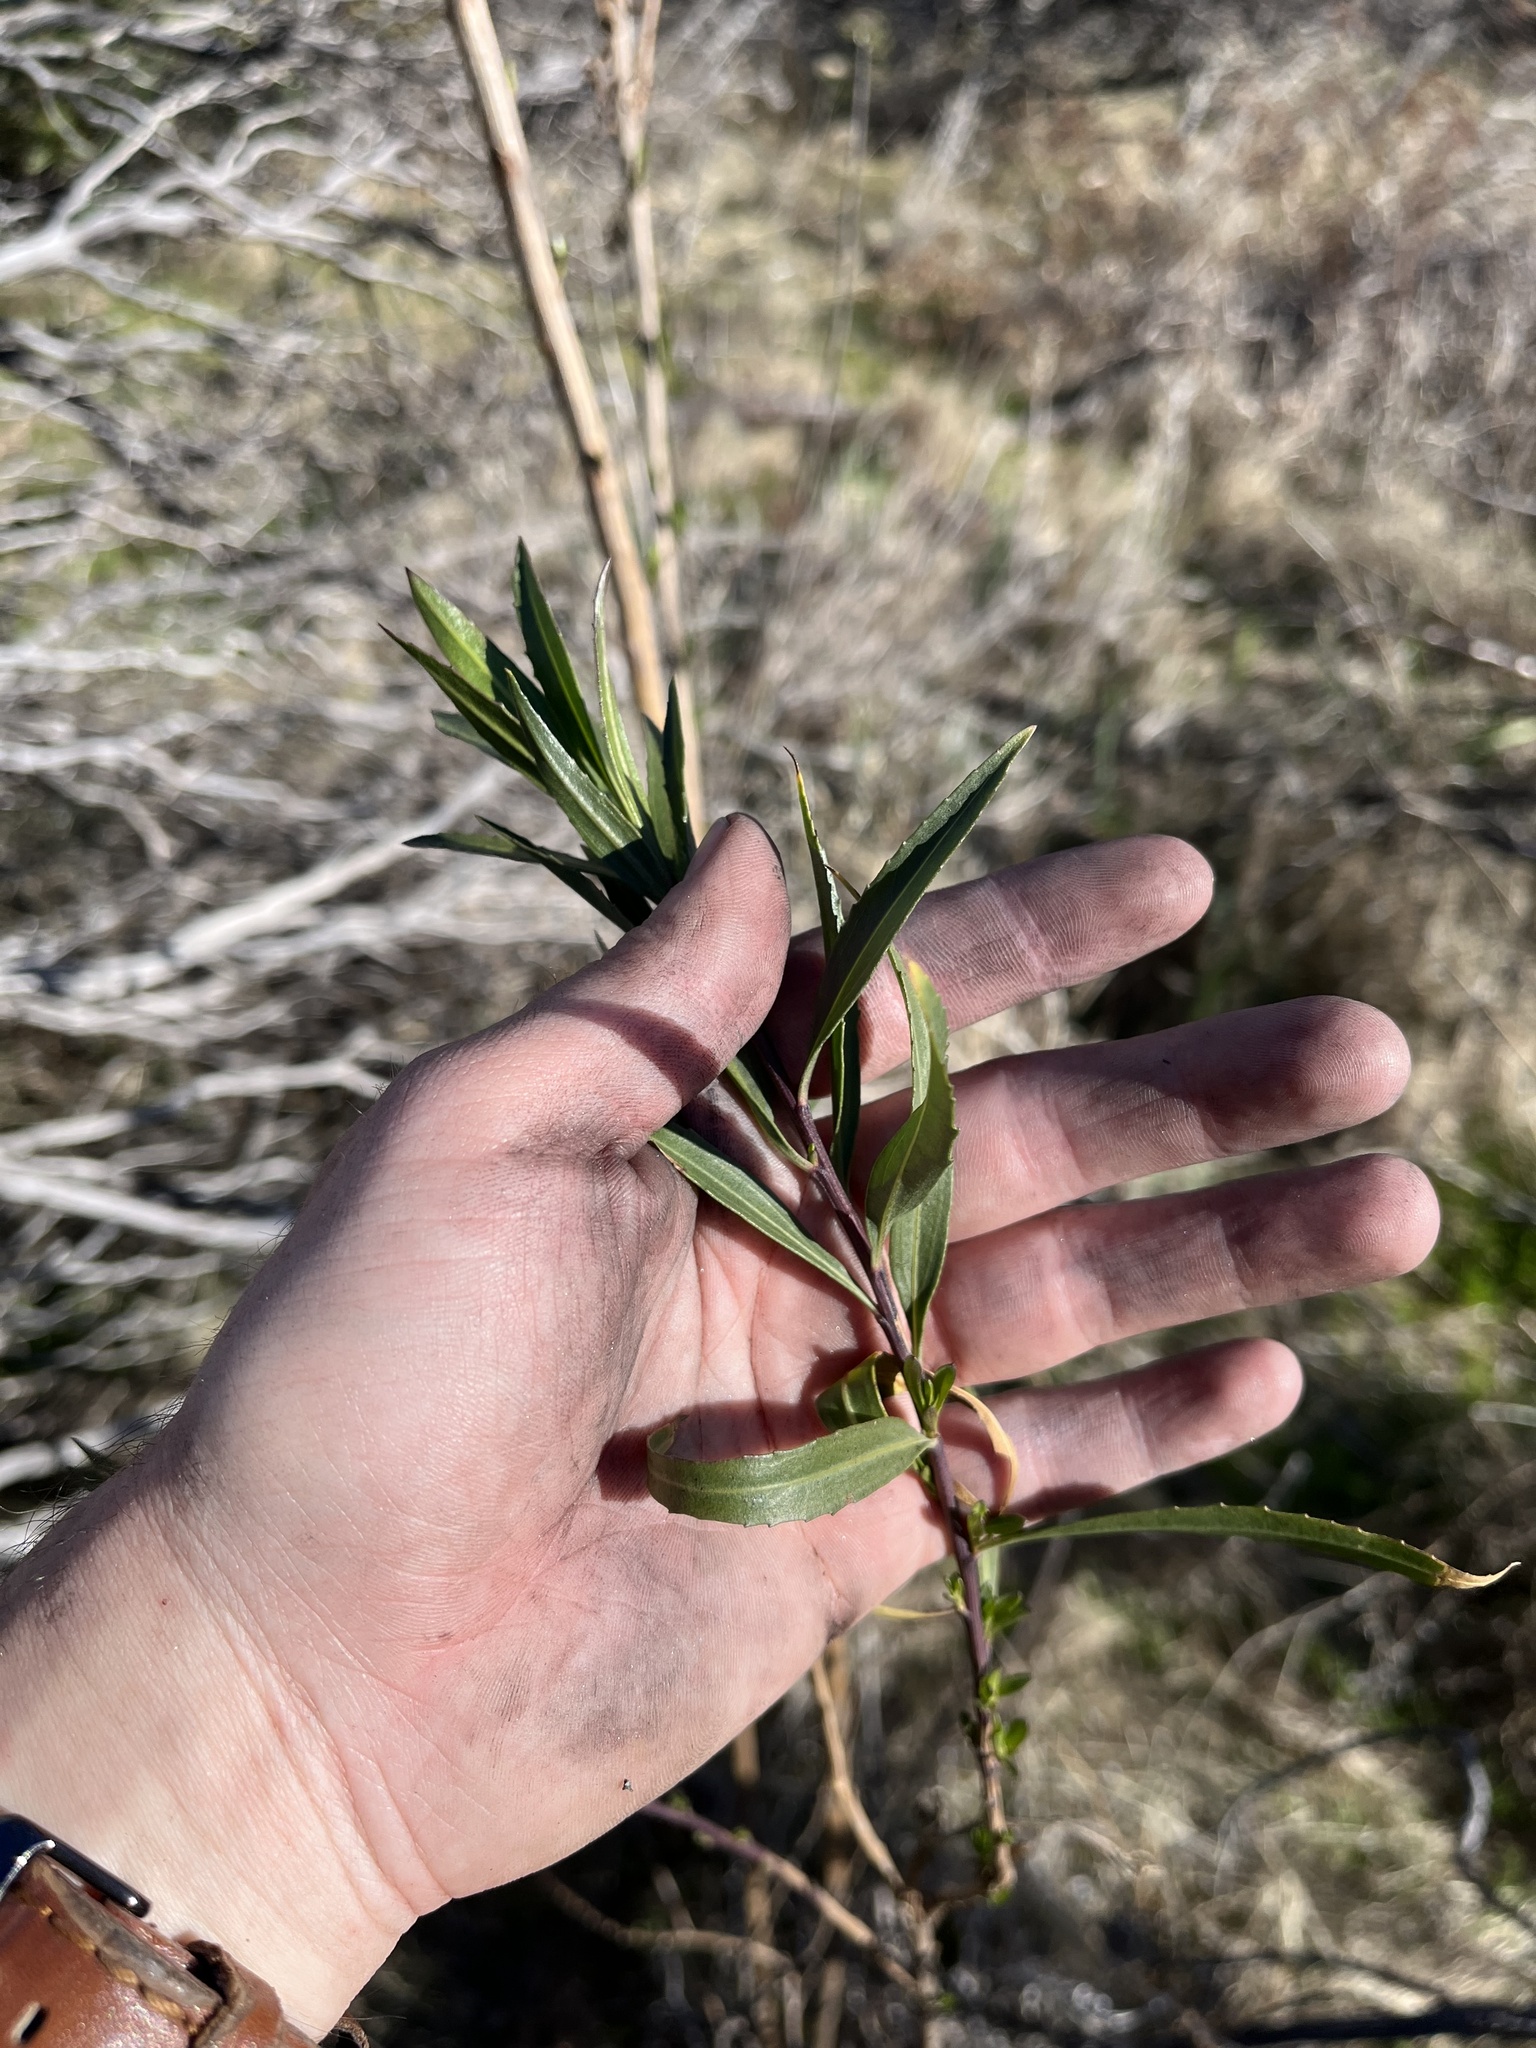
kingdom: Plantae
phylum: Tracheophyta
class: Magnoliopsida
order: Asterales
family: Asteraceae
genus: Baccharis
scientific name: Baccharis salicifolia
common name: Sticky baccharis
